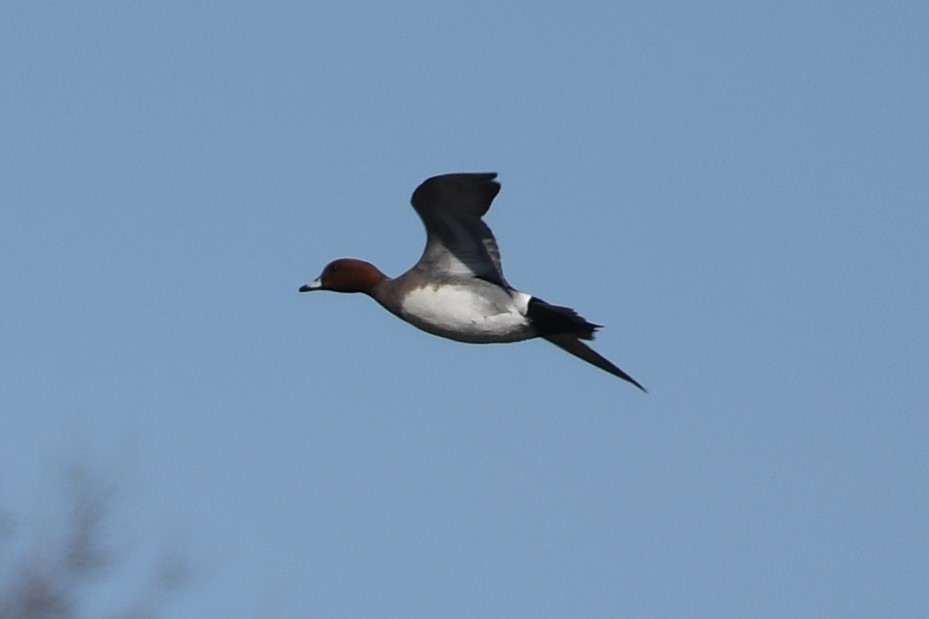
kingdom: Animalia
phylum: Chordata
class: Aves
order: Anseriformes
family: Anatidae
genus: Mareca
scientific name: Mareca penelope
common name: Eurasian wigeon
